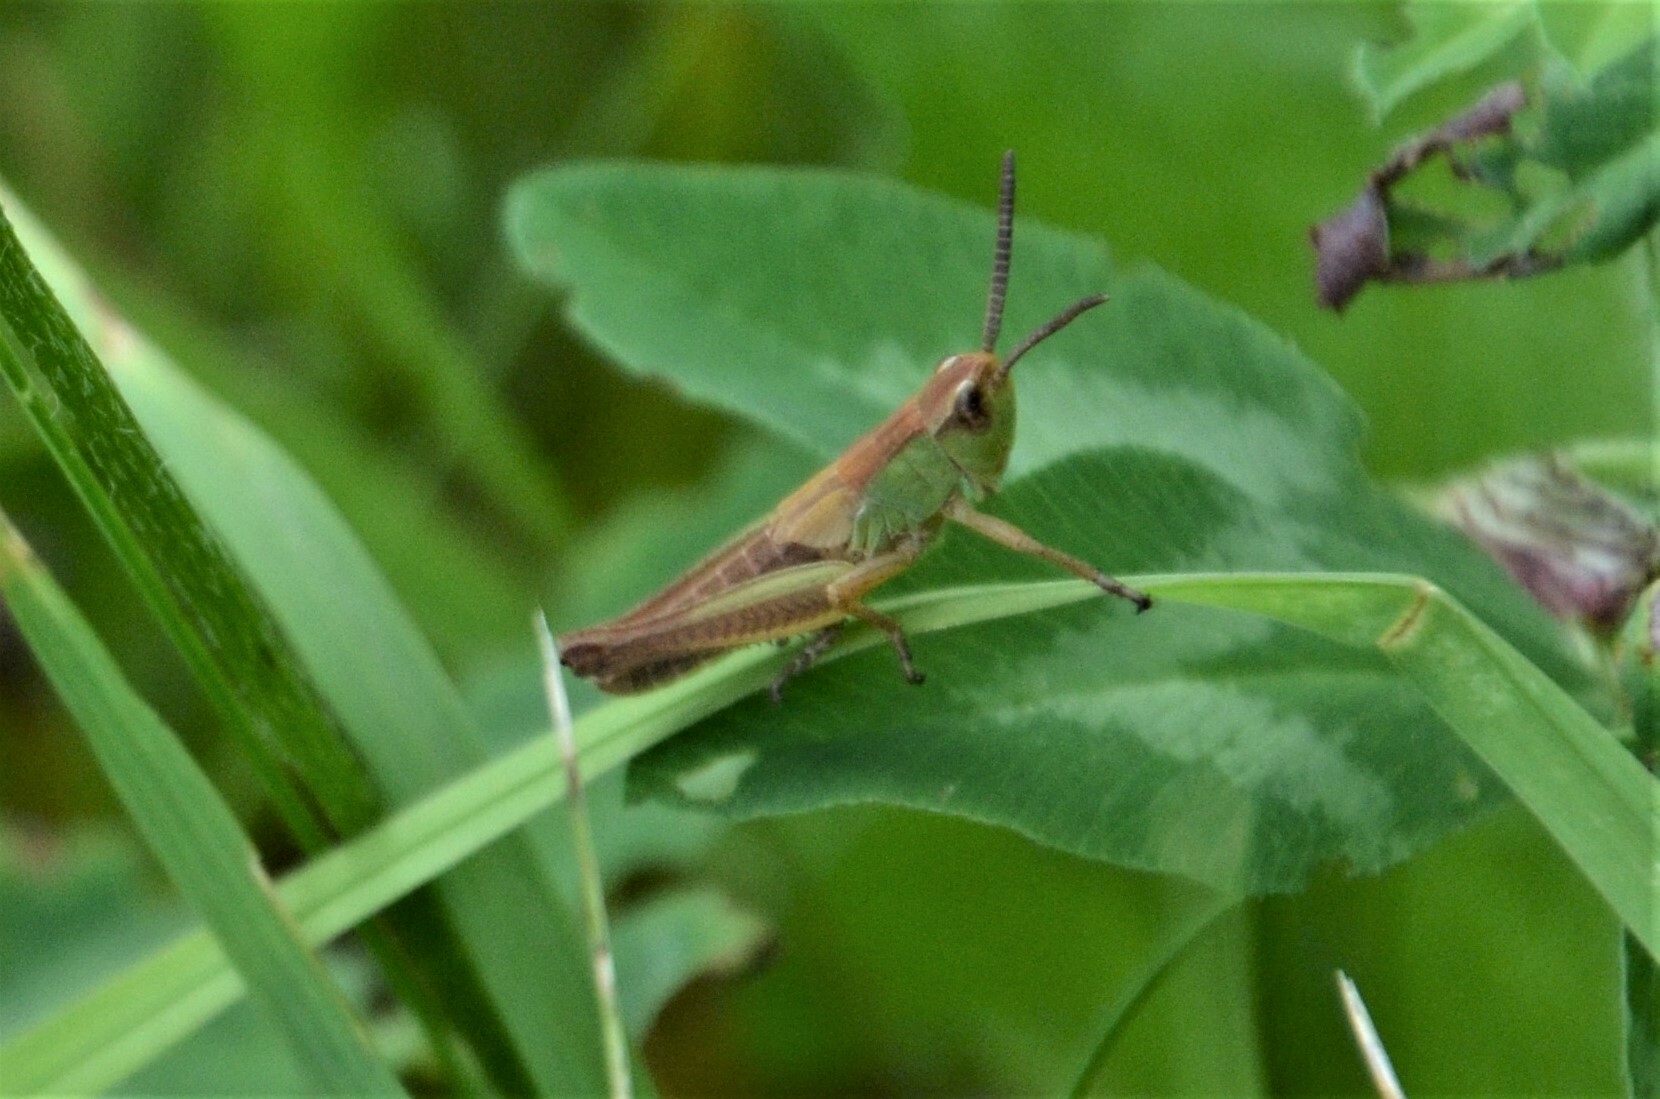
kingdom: Animalia
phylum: Arthropoda
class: Insecta
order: Orthoptera
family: Acrididae
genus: Pseudochorthippus
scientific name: Pseudochorthippus parallelus
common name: Meadow grasshopper
